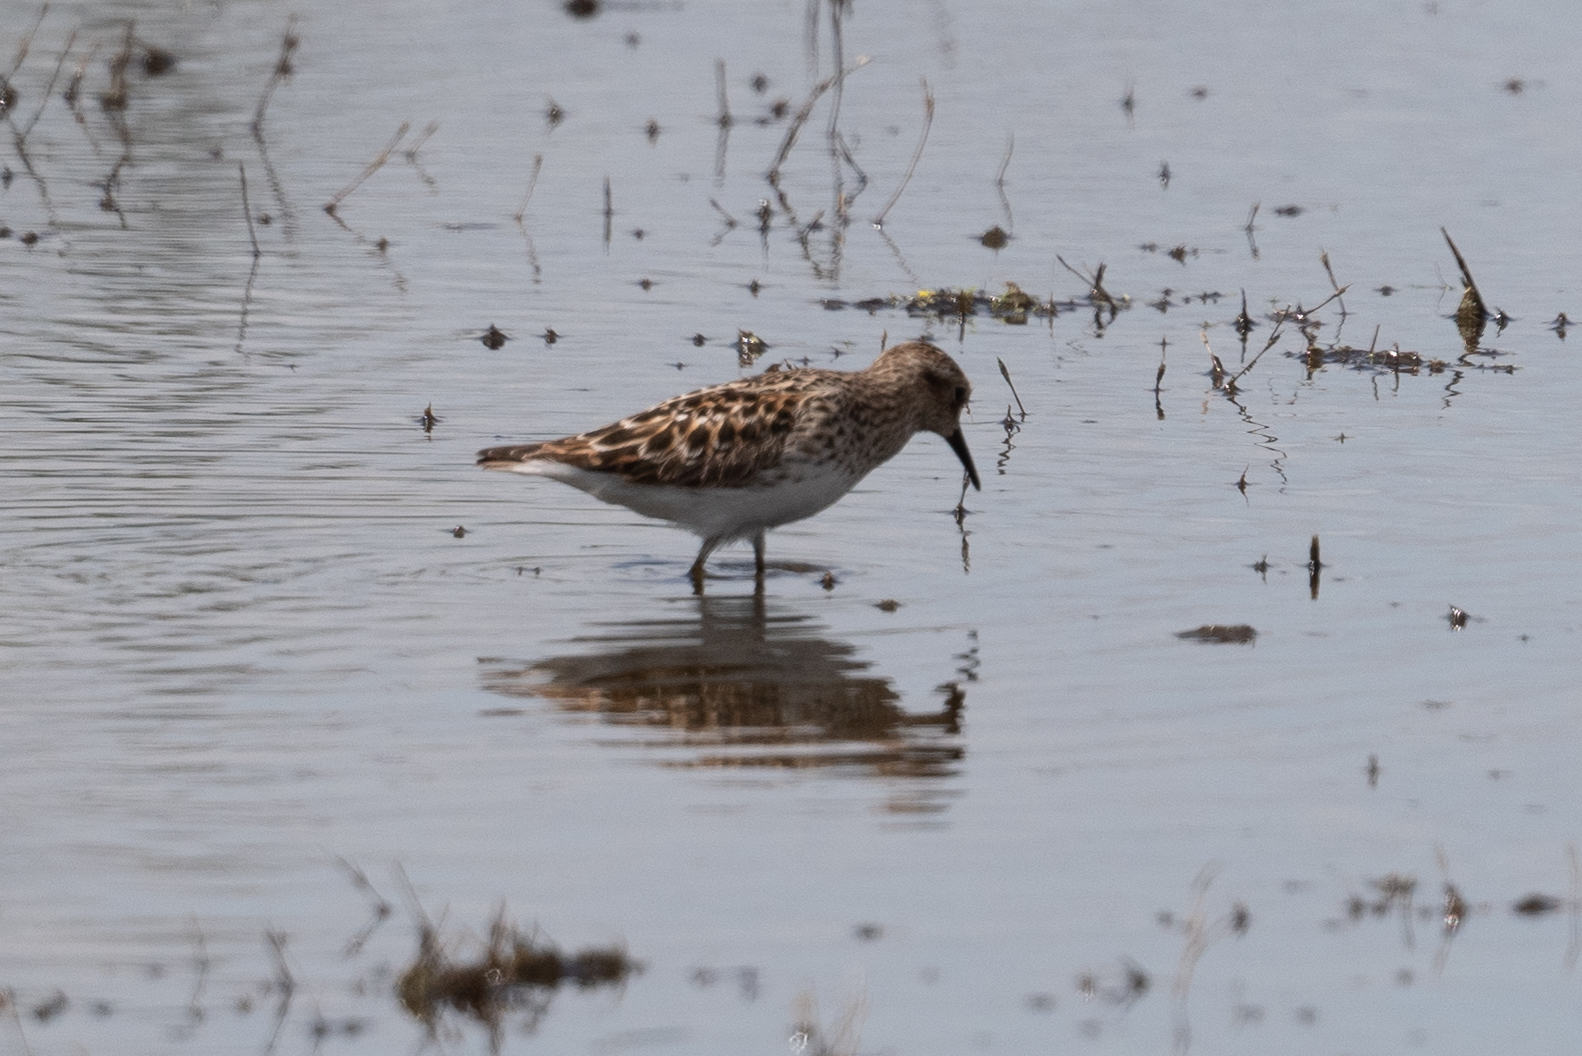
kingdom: Animalia
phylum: Chordata
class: Aves
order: Charadriiformes
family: Scolopacidae
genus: Calidris
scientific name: Calidris minutilla
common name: Least sandpiper
